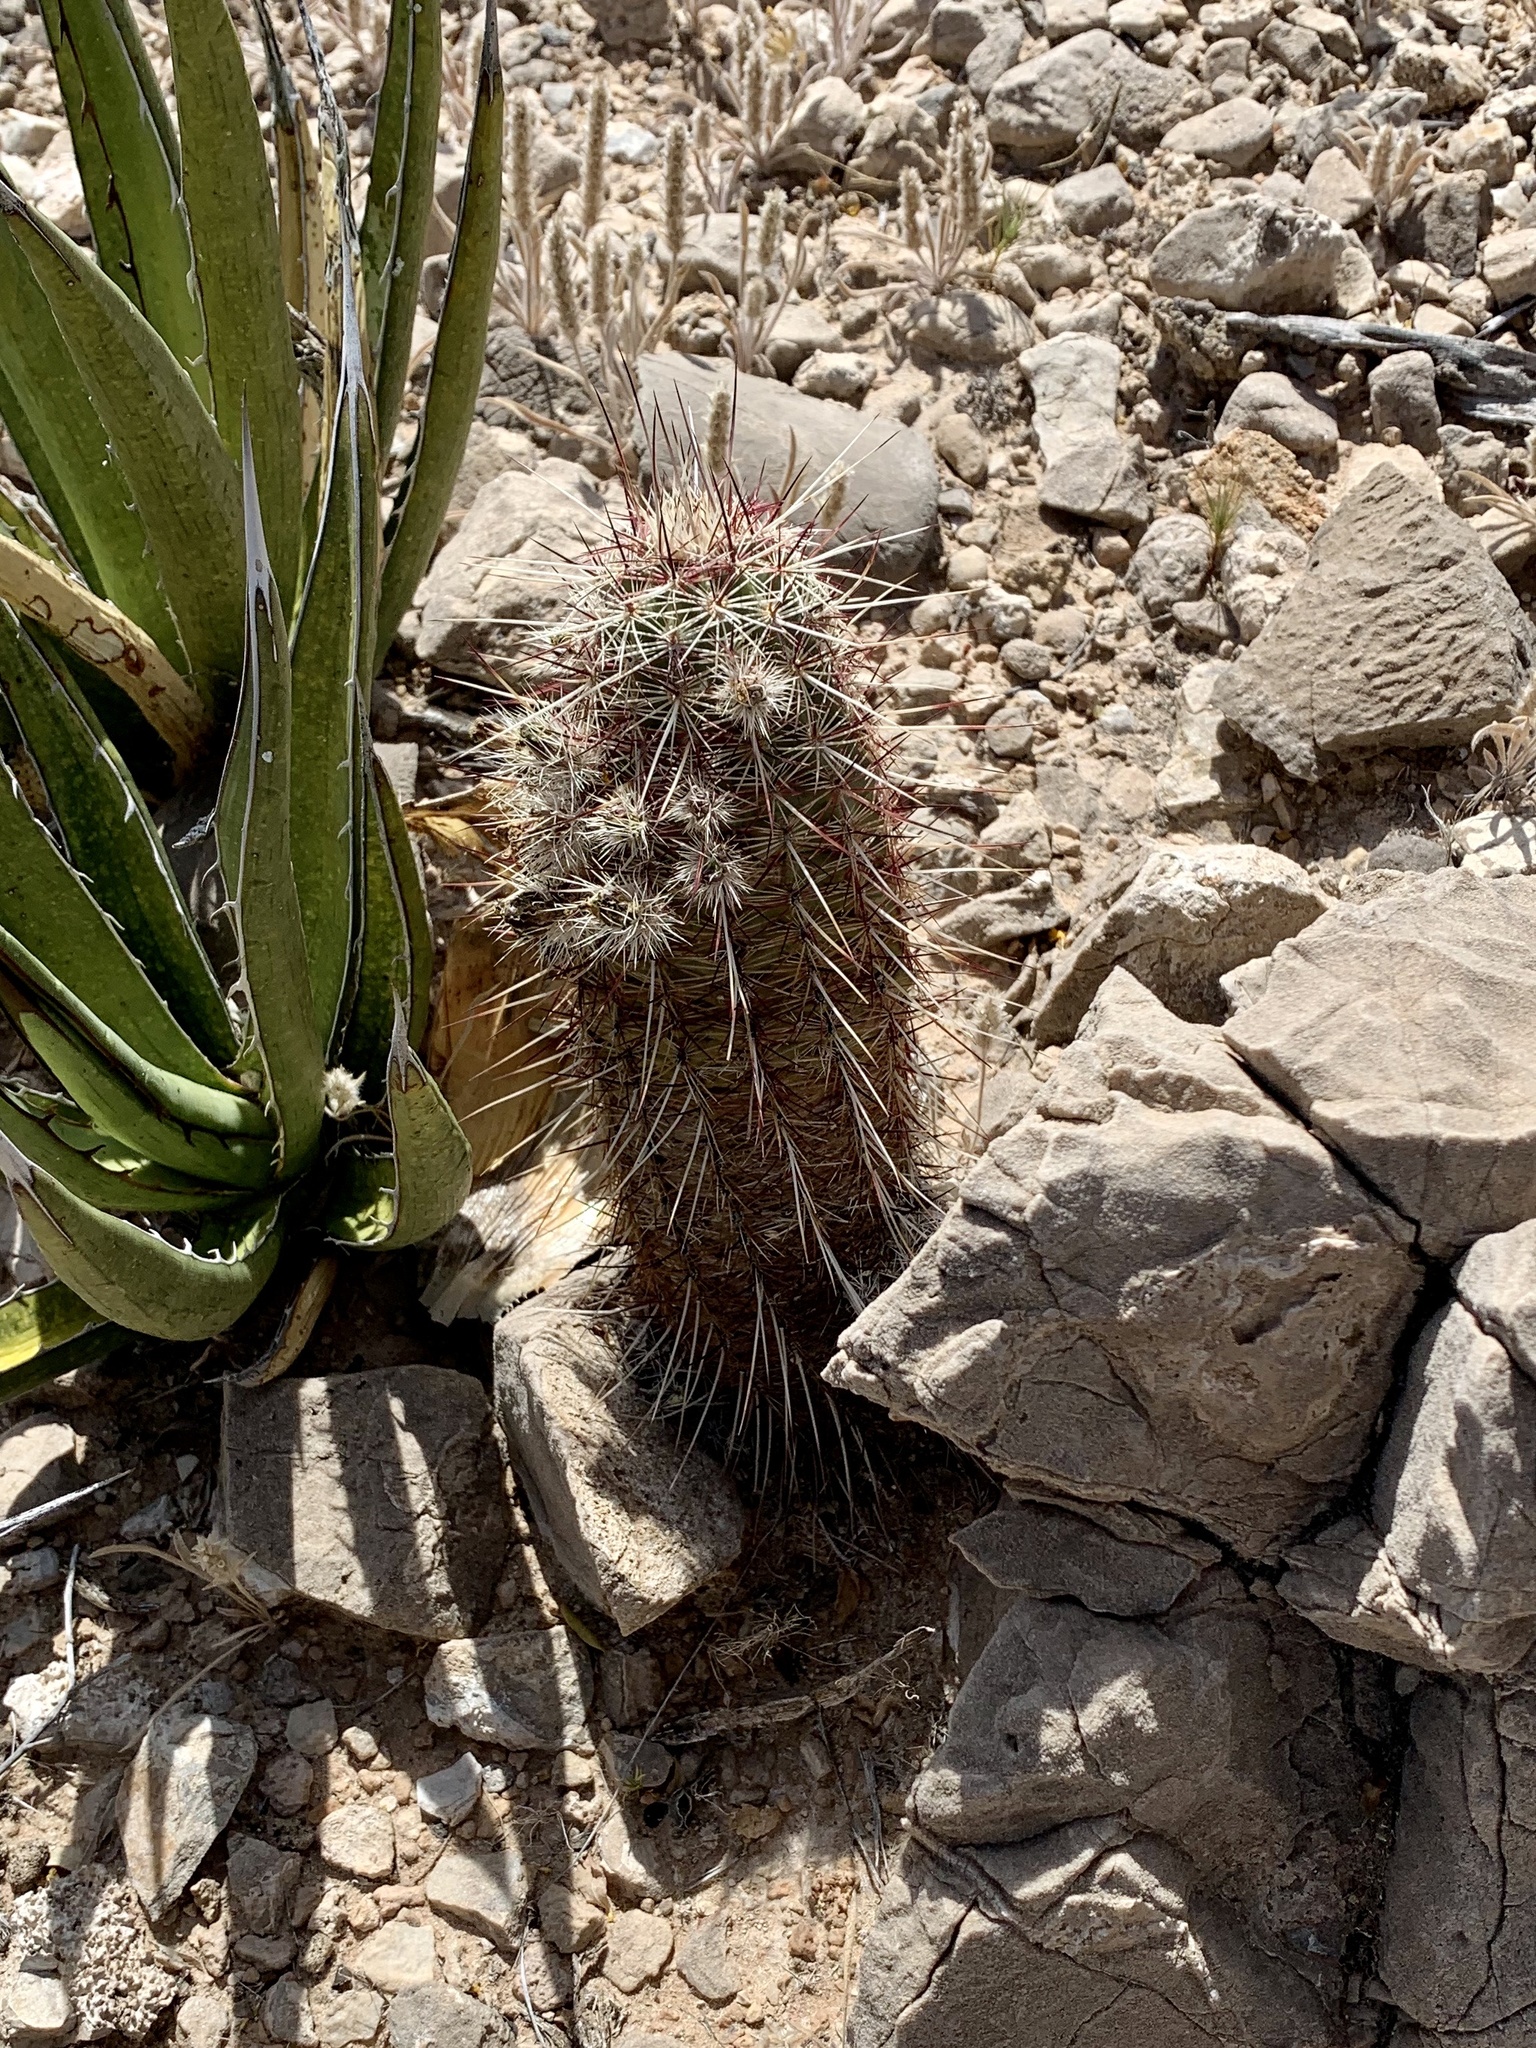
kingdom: Plantae
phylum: Tracheophyta
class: Magnoliopsida
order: Caryophyllales
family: Cactaceae
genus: Echinocereus
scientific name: Echinocereus viridiflorus
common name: Nylon hedgehog cactus
